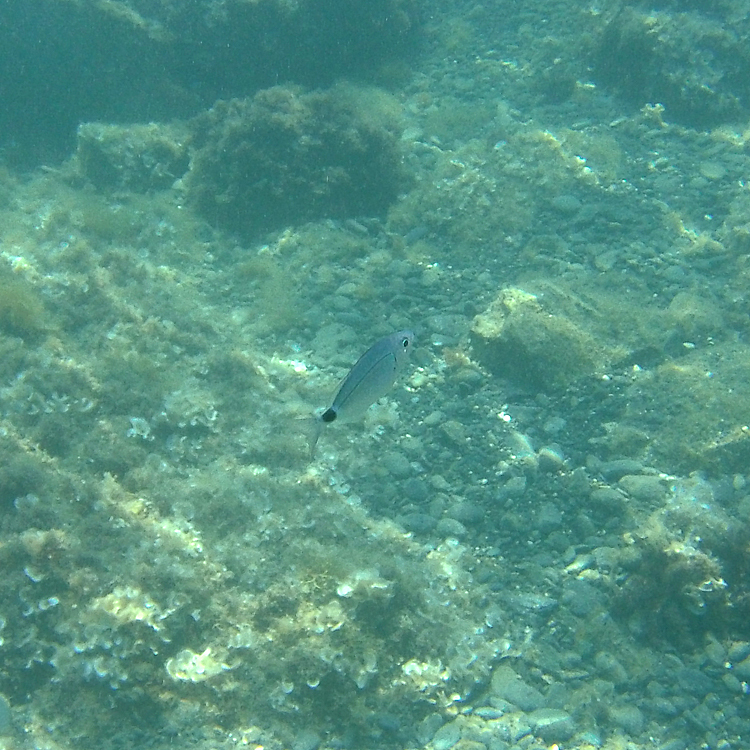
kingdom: Animalia
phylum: Chordata
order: Perciformes
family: Sparidae
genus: Oblada
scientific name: Oblada melanura
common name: Saddled seabream
